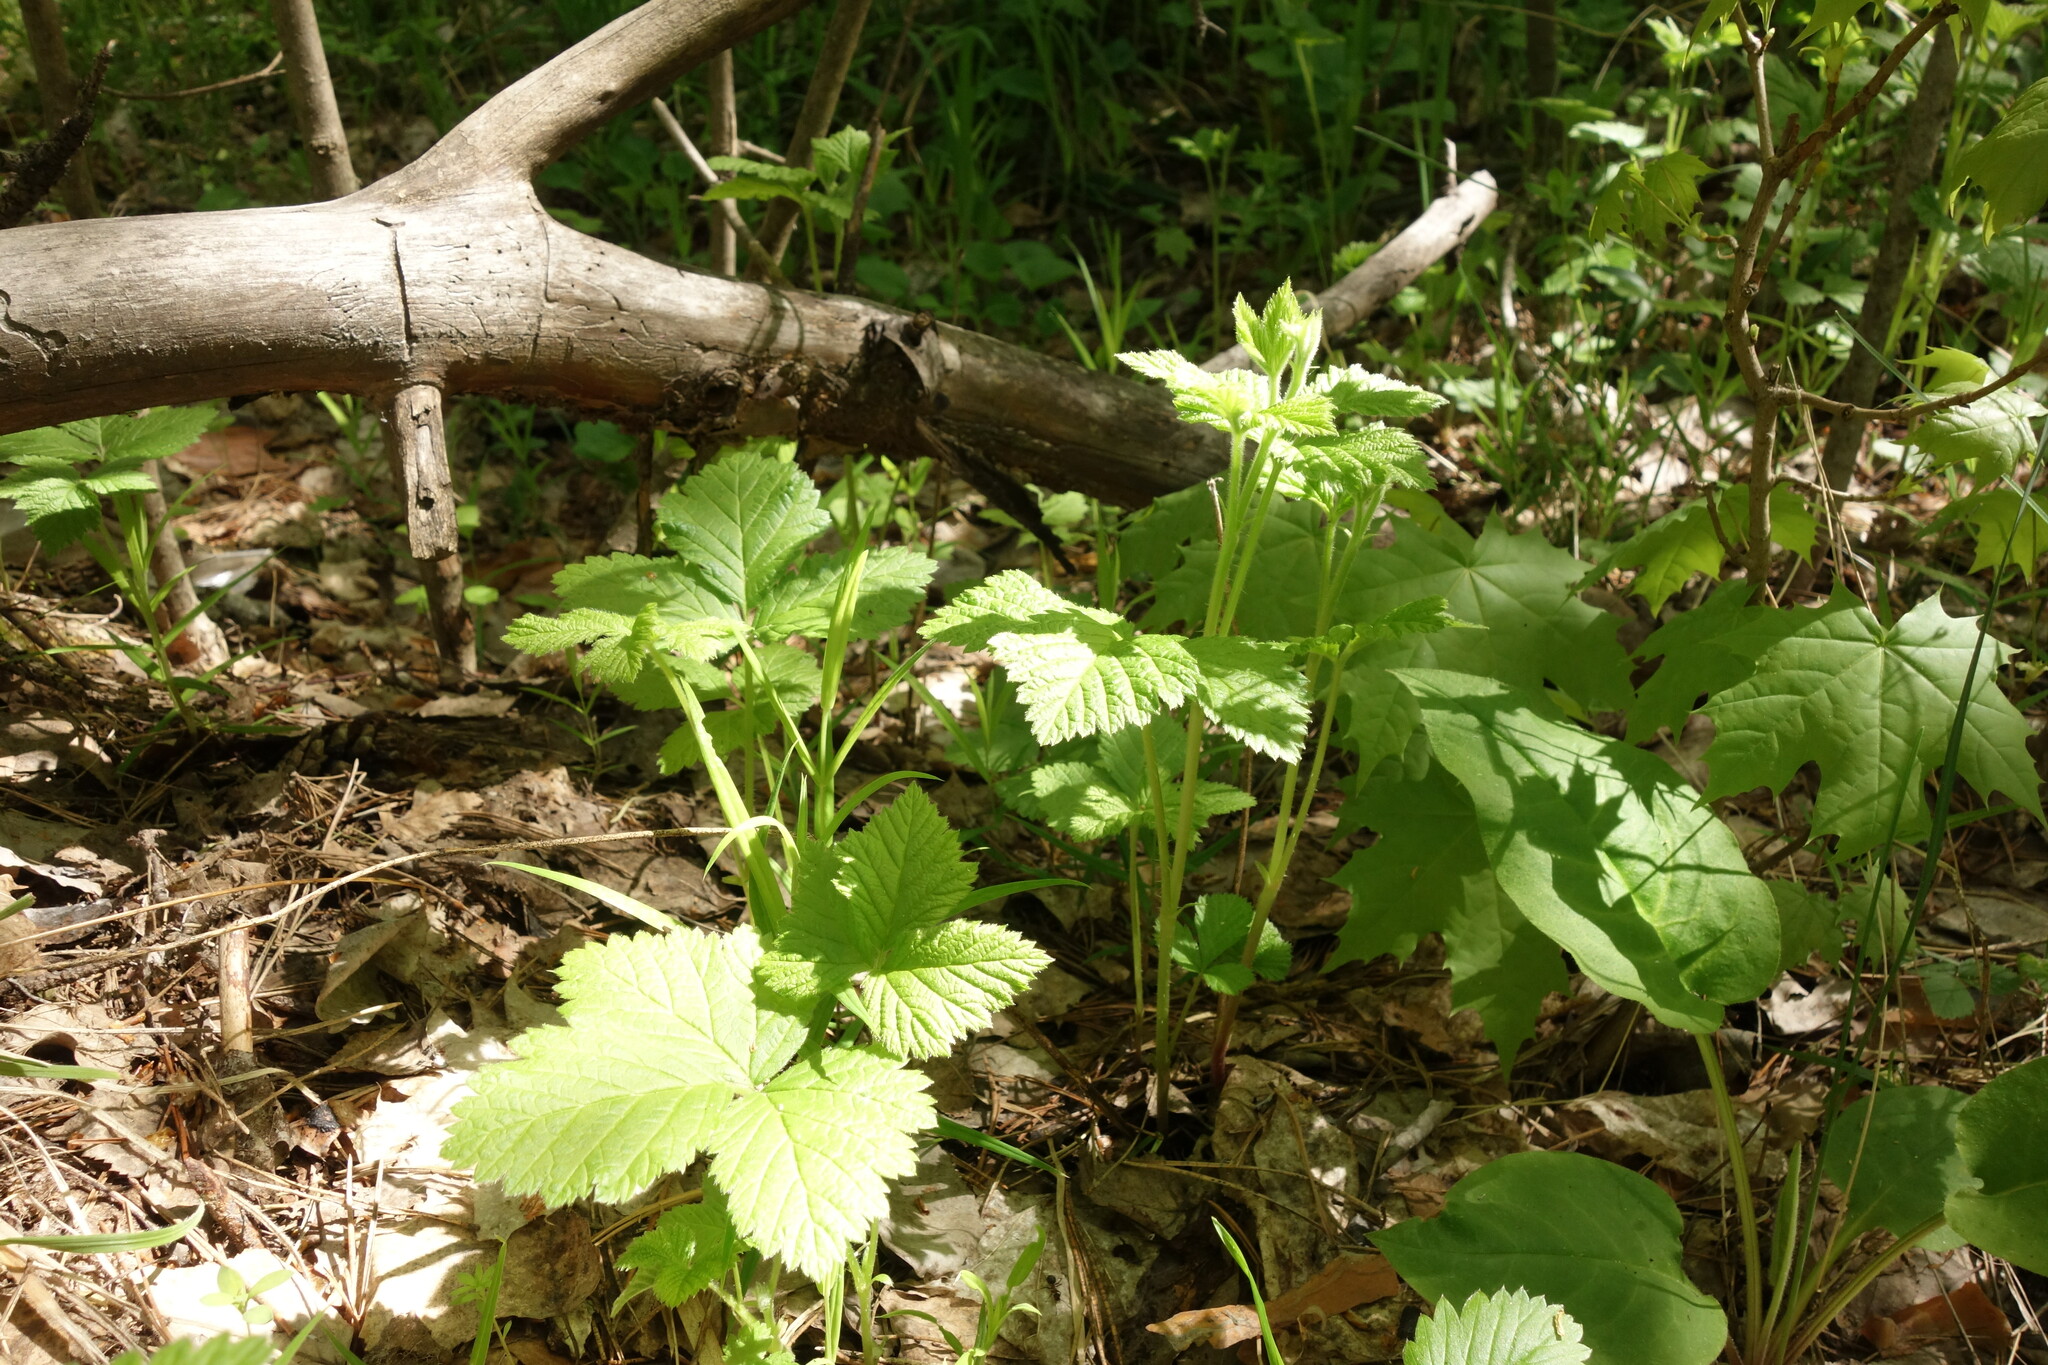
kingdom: Plantae
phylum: Tracheophyta
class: Magnoliopsida
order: Rosales
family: Rosaceae
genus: Rubus
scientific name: Rubus saxatilis
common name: Stone bramble
